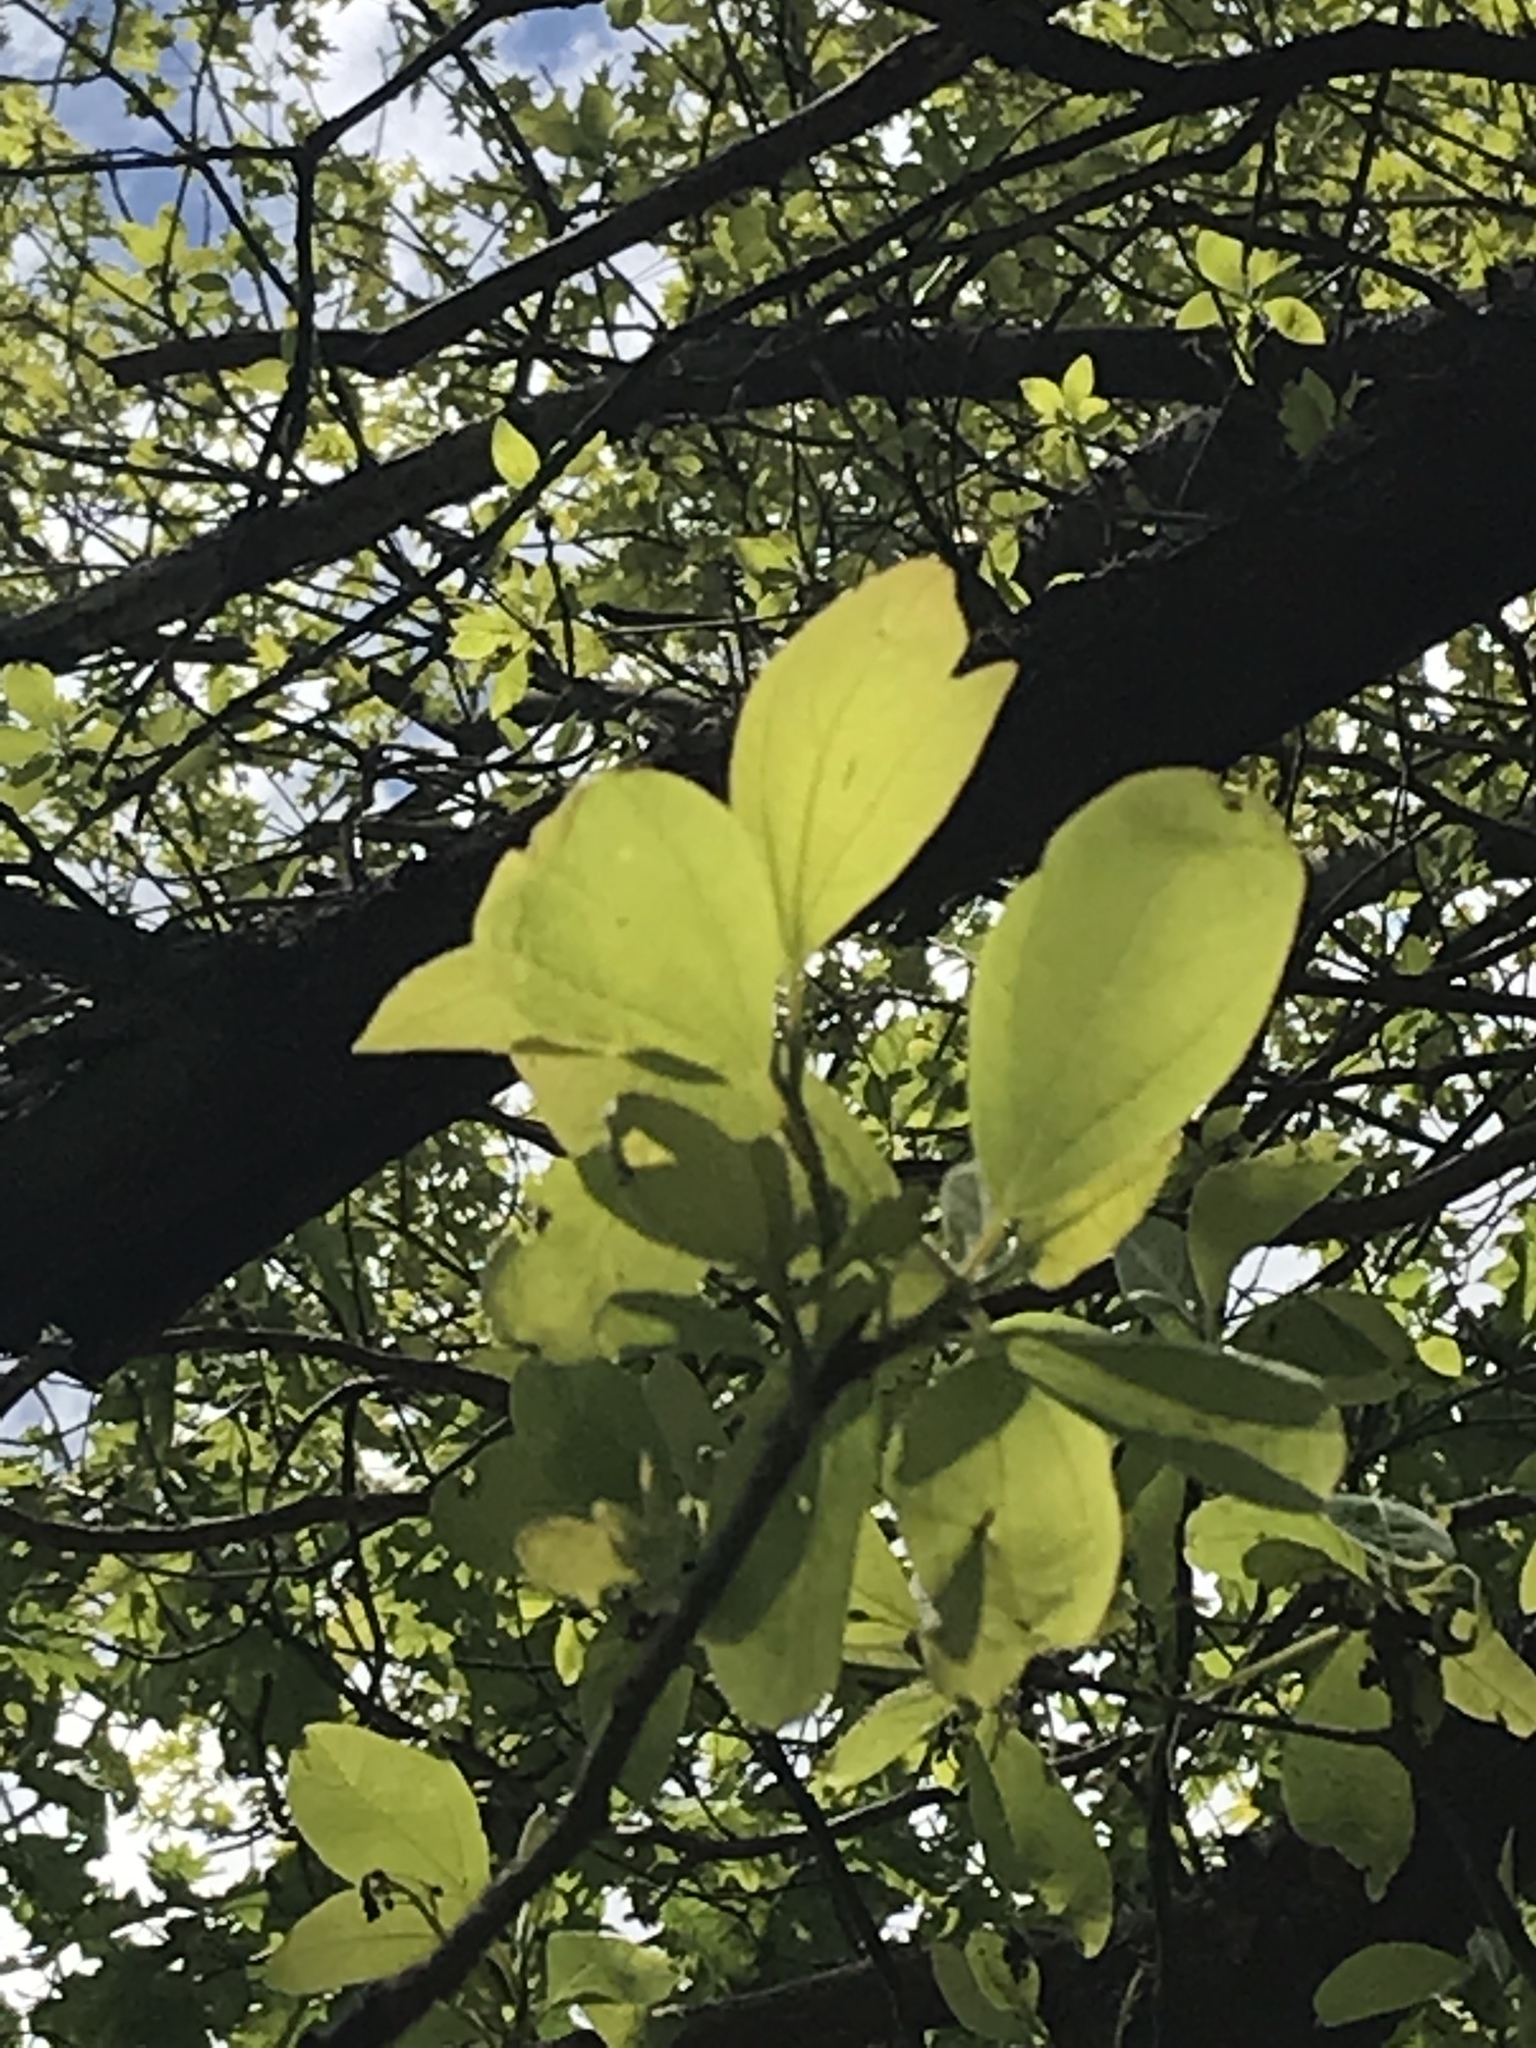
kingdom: Plantae
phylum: Tracheophyta
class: Magnoliopsida
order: Laurales
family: Lauraceae
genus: Sassafras
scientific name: Sassafras albidum
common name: Sassafras
